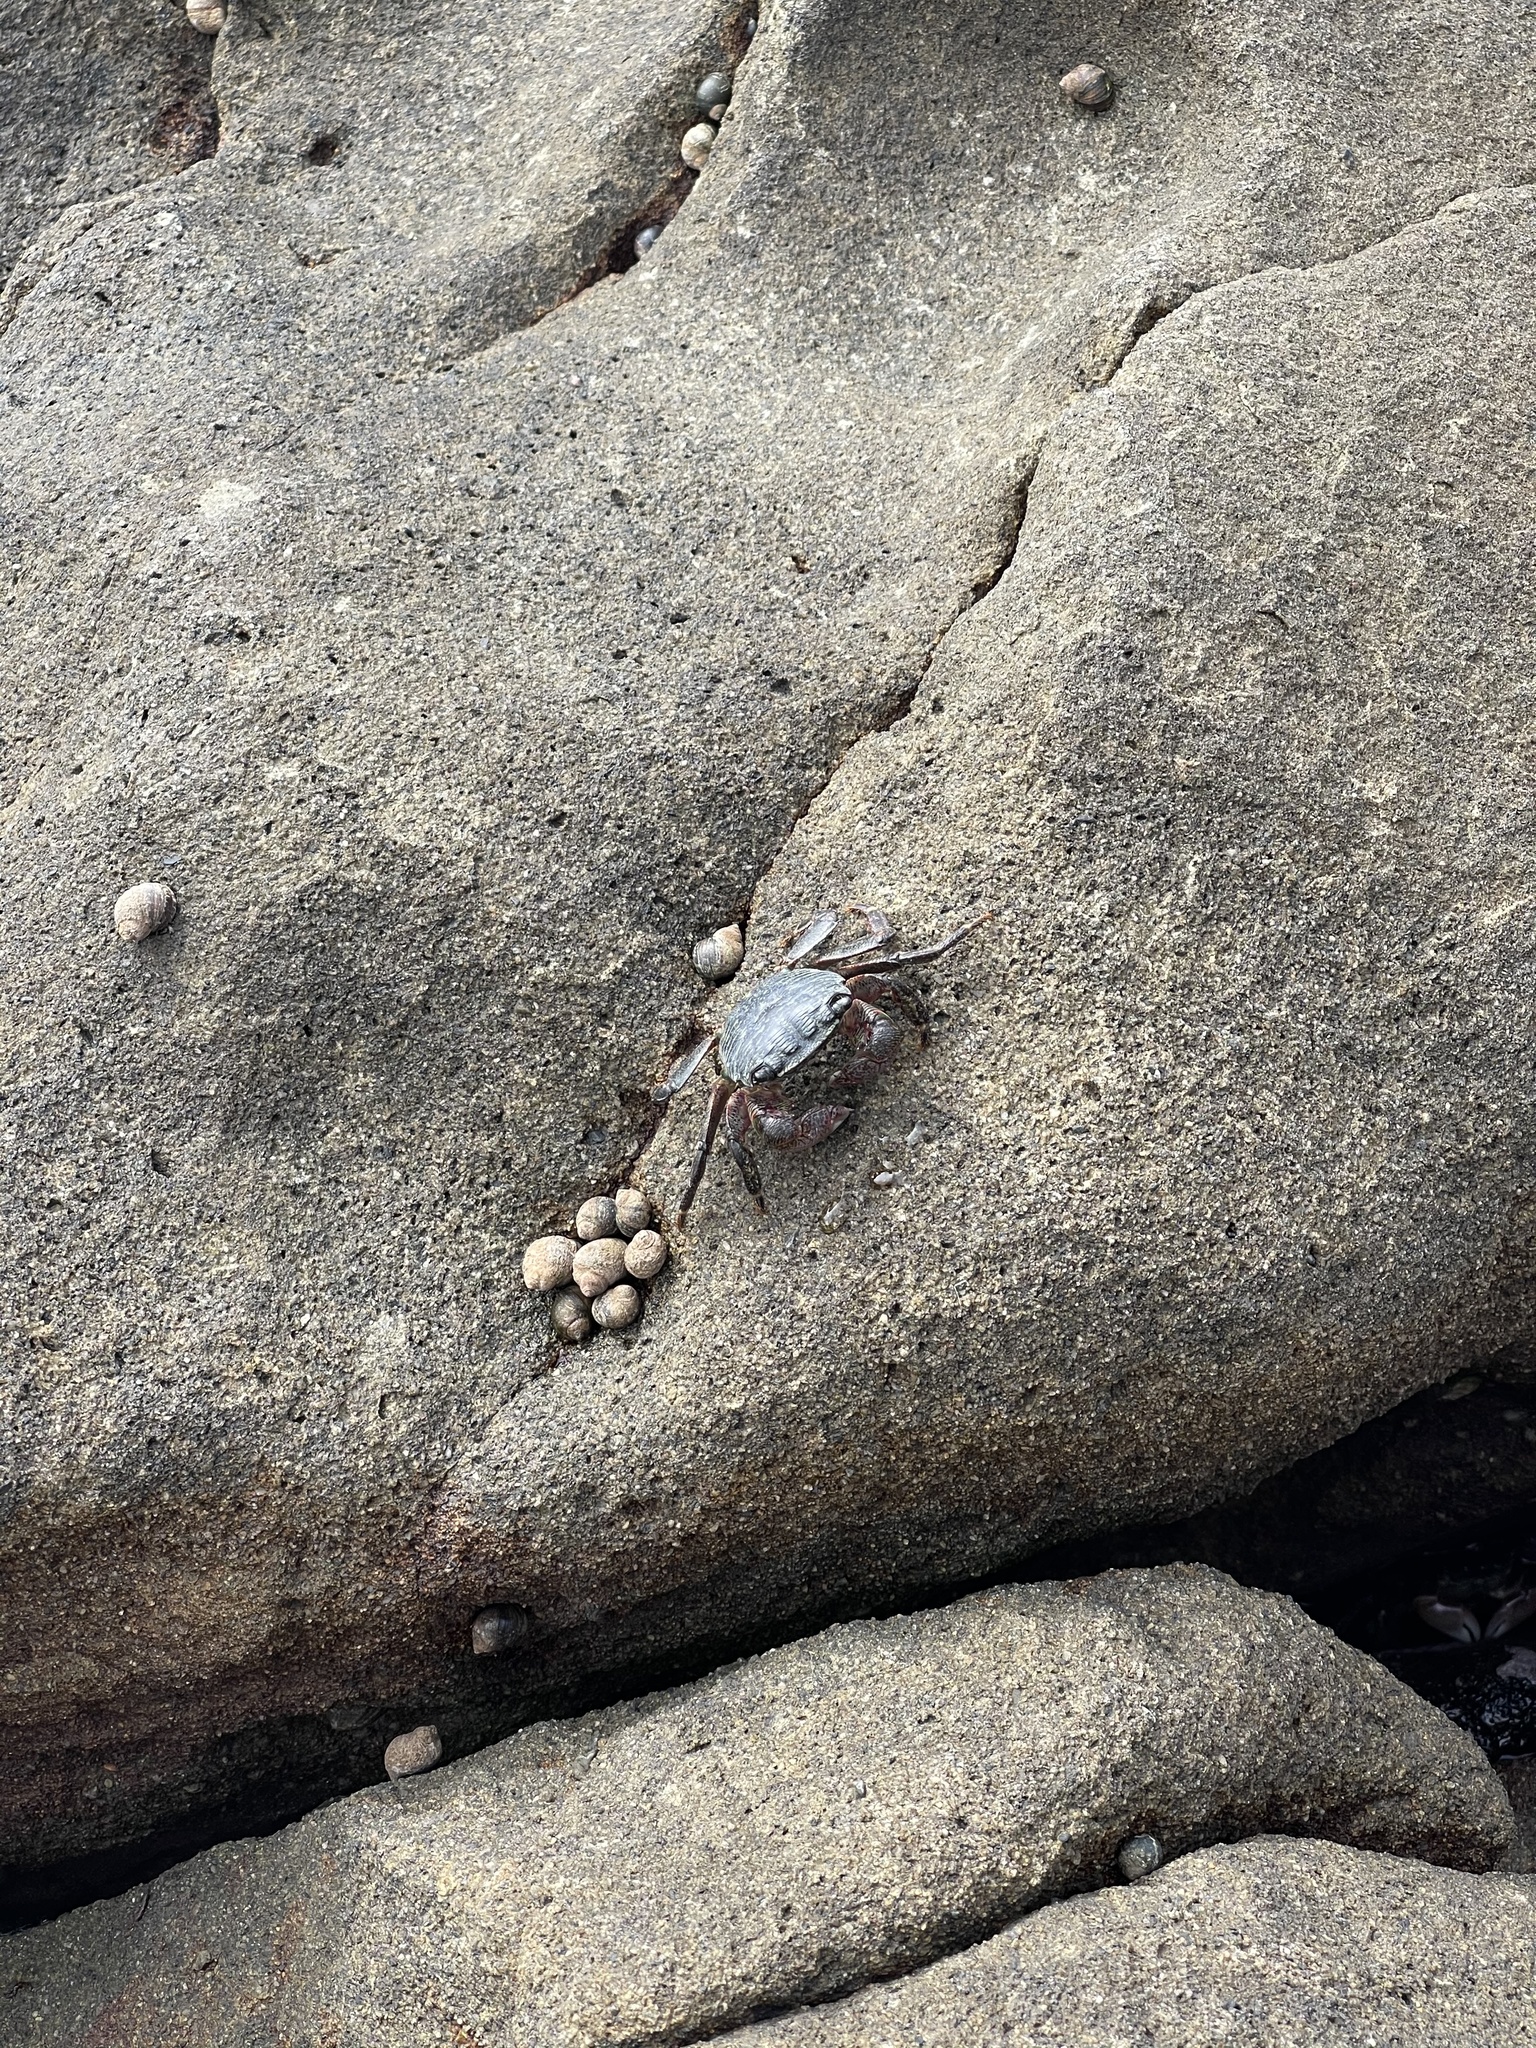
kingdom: Animalia
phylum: Arthropoda
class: Malacostraca
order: Decapoda
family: Grapsidae
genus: Pachygrapsus
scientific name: Pachygrapsus crassipes
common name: Striped shore crab
